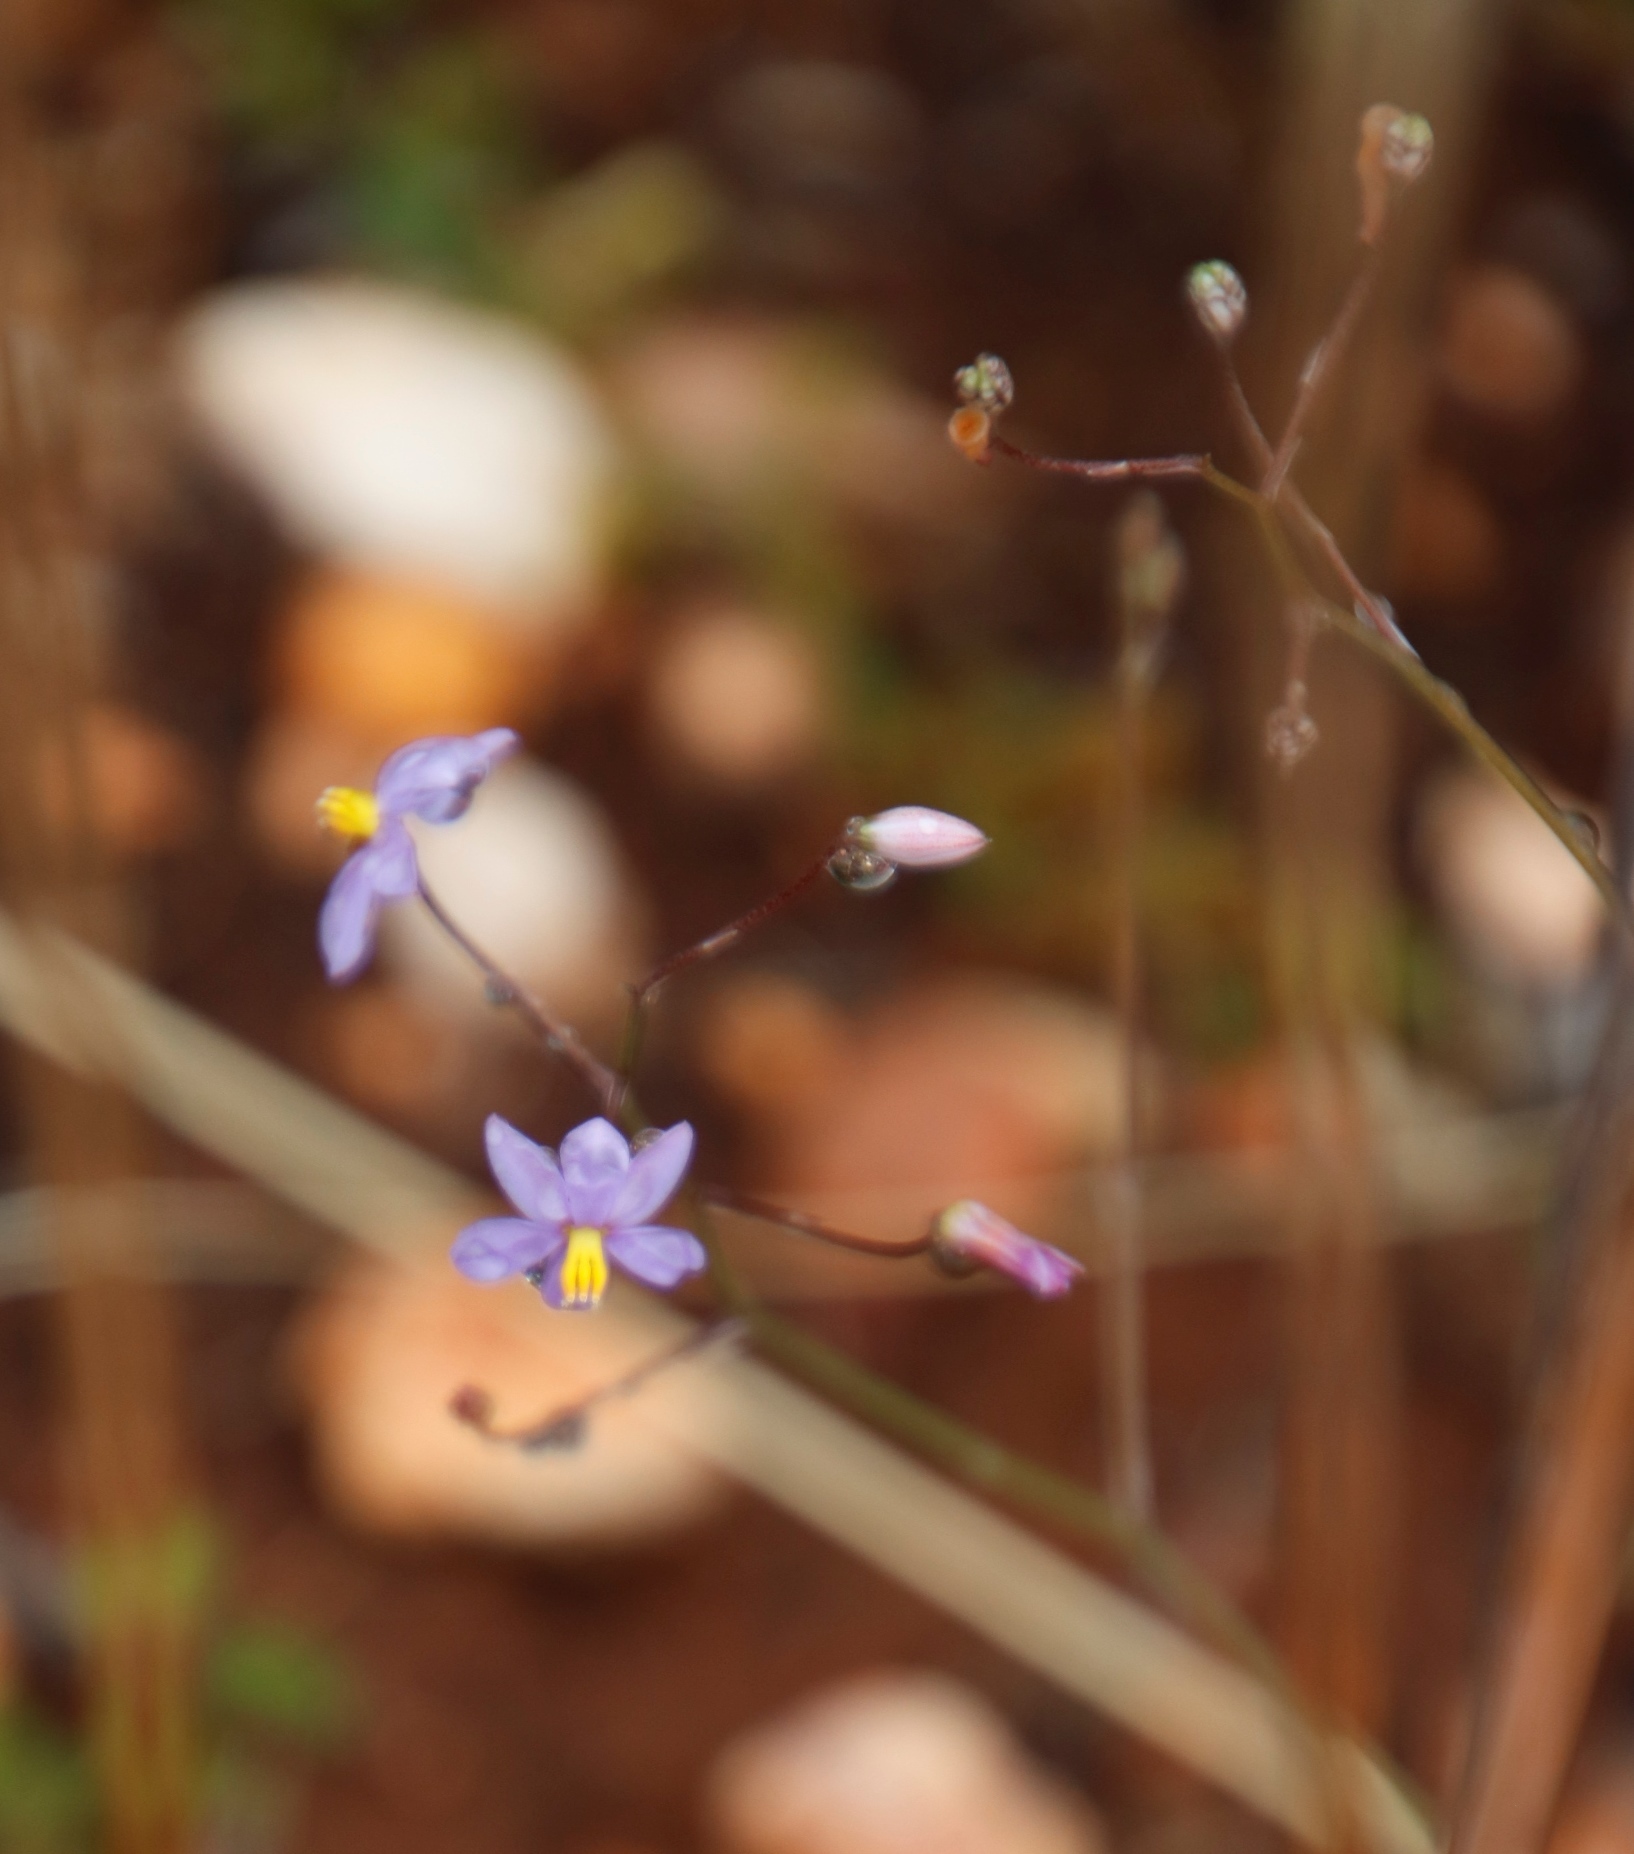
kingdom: Plantae
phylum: Tracheophyta
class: Liliopsida
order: Asparagales
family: Tecophilaeaceae
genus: Cyanella
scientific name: Cyanella hyacinthoides
